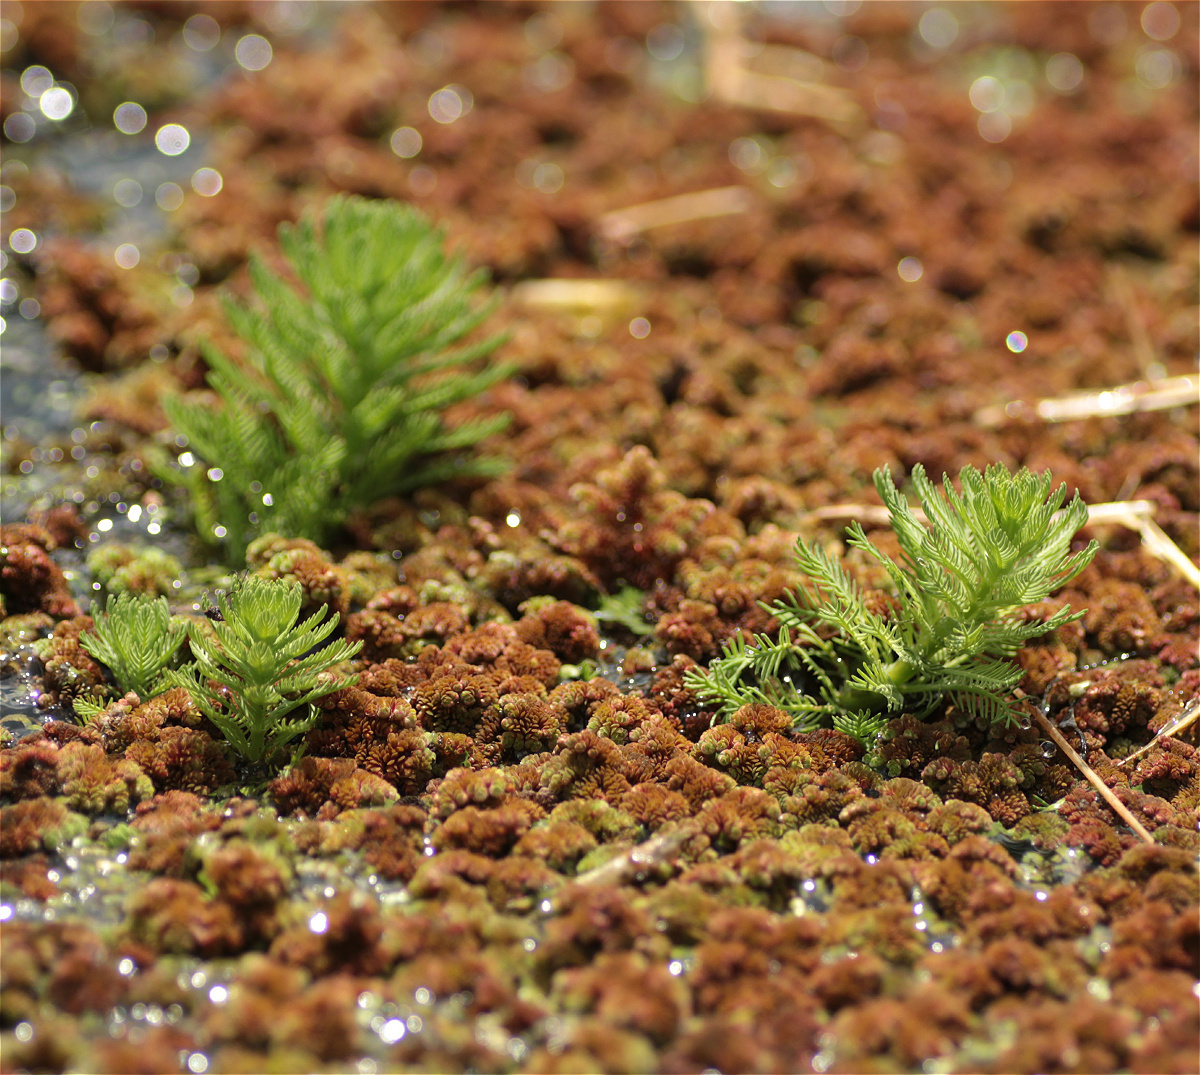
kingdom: Plantae
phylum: Tracheophyta
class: Magnoliopsida
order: Saxifragales
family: Haloragaceae
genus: Myriophyllum
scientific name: Myriophyllum aquaticum
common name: Parrot's feather
